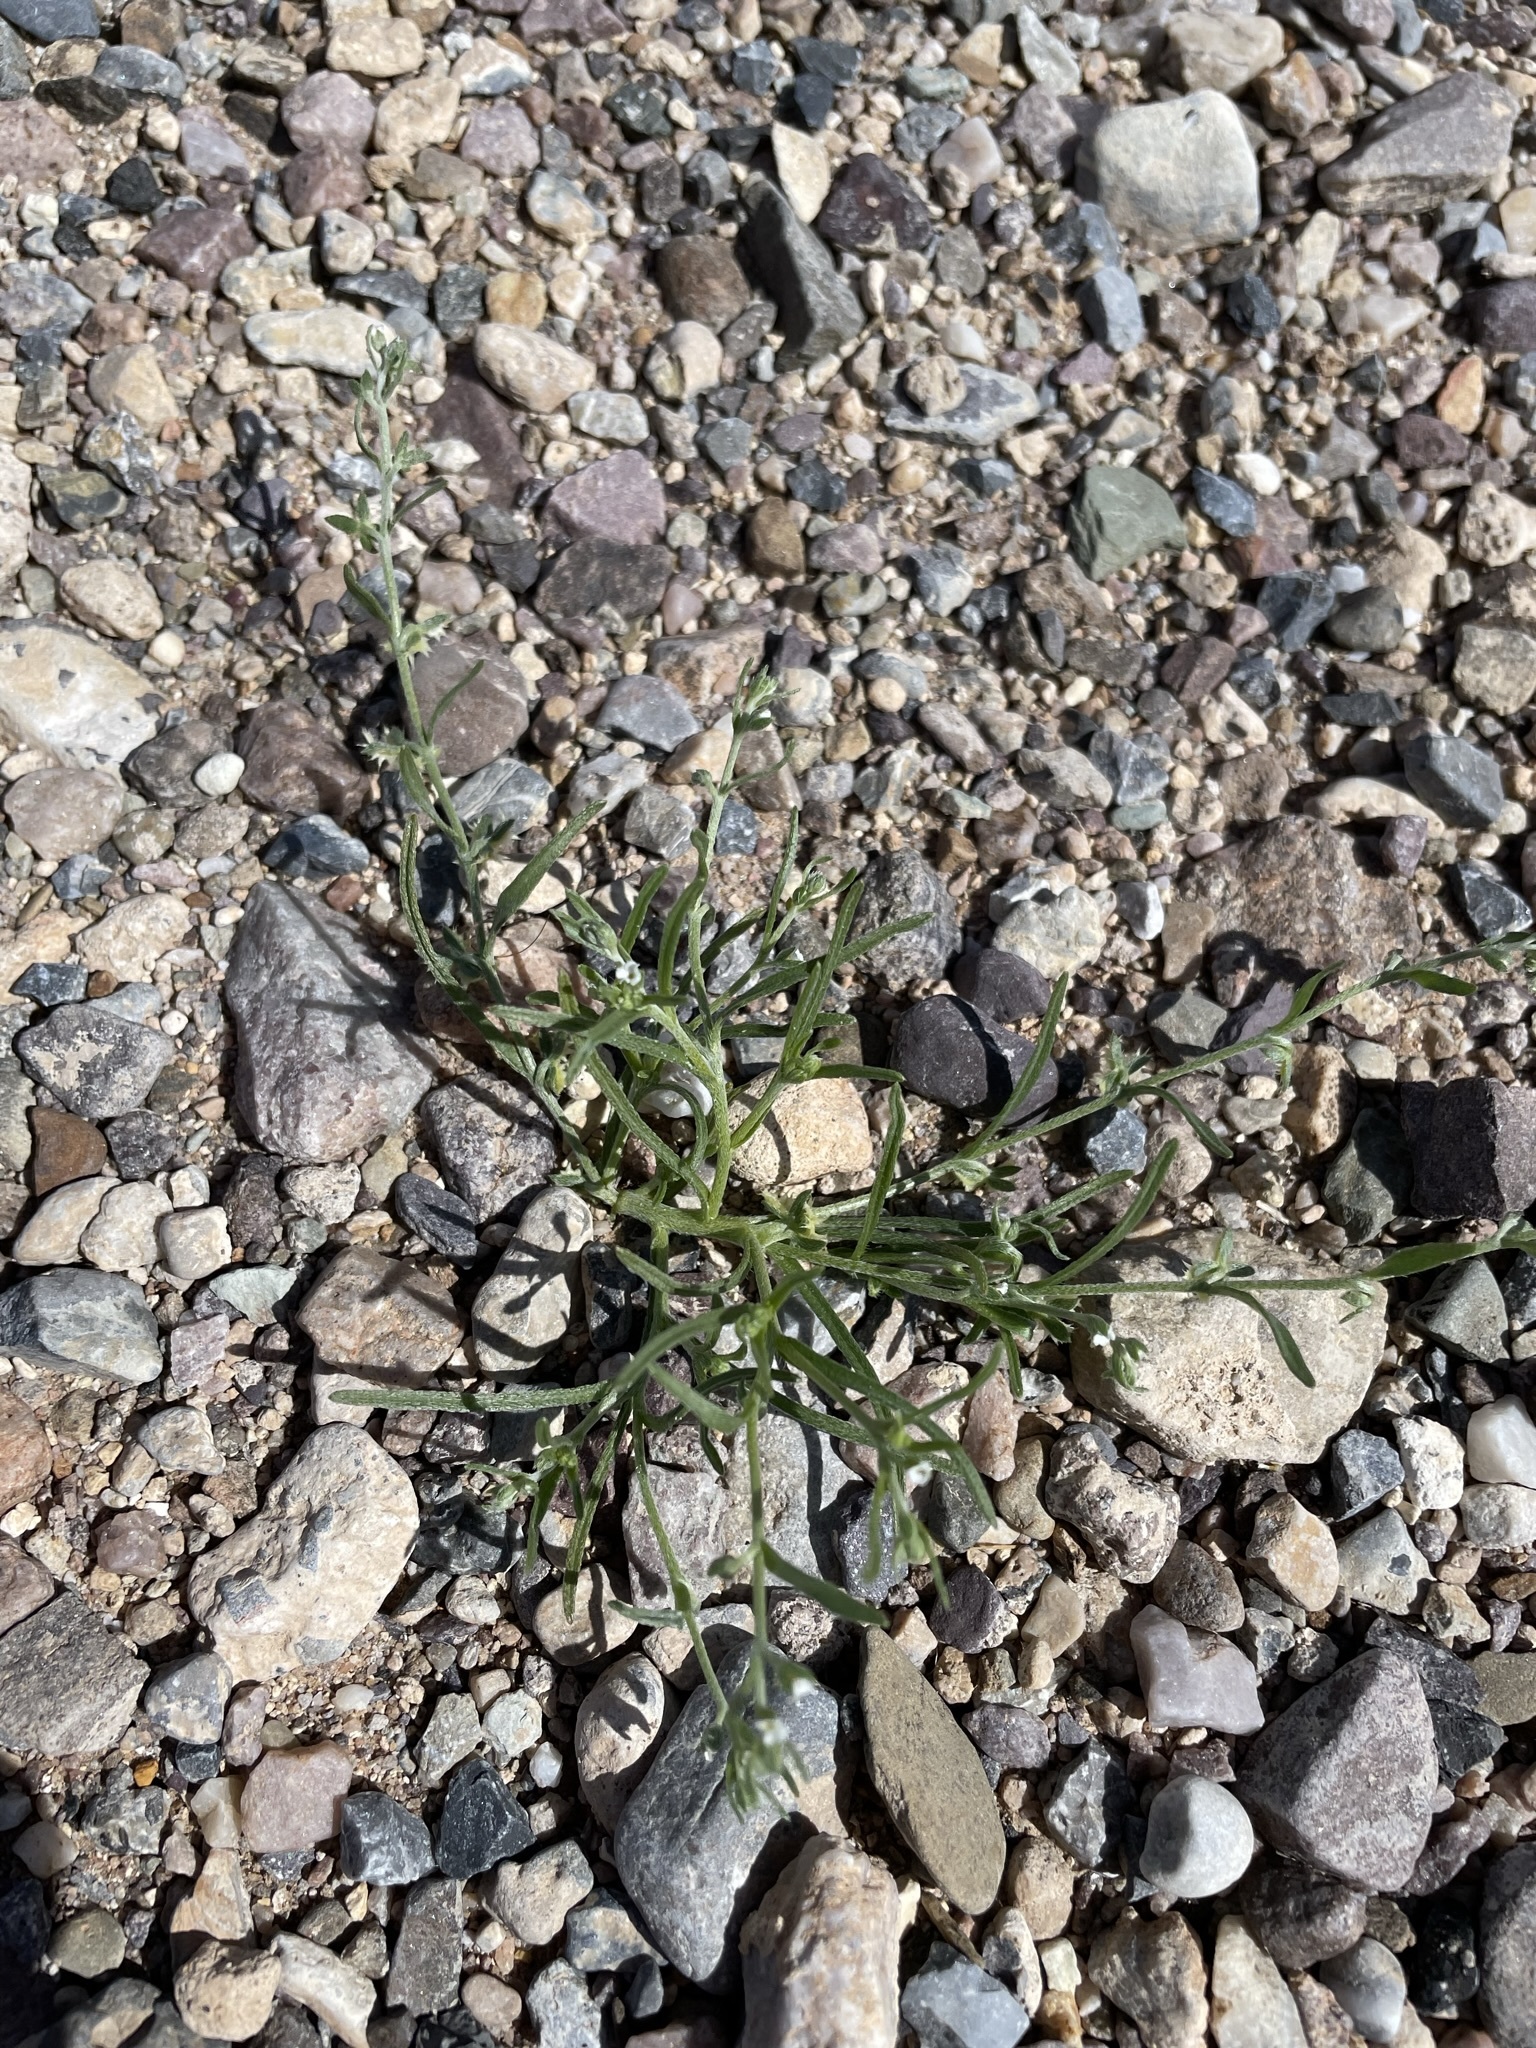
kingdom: Plantae
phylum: Tracheophyta
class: Magnoliopsida
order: Boraginales
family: Boraginaceae
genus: Pectocarya
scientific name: Pectocarya platycarpa
